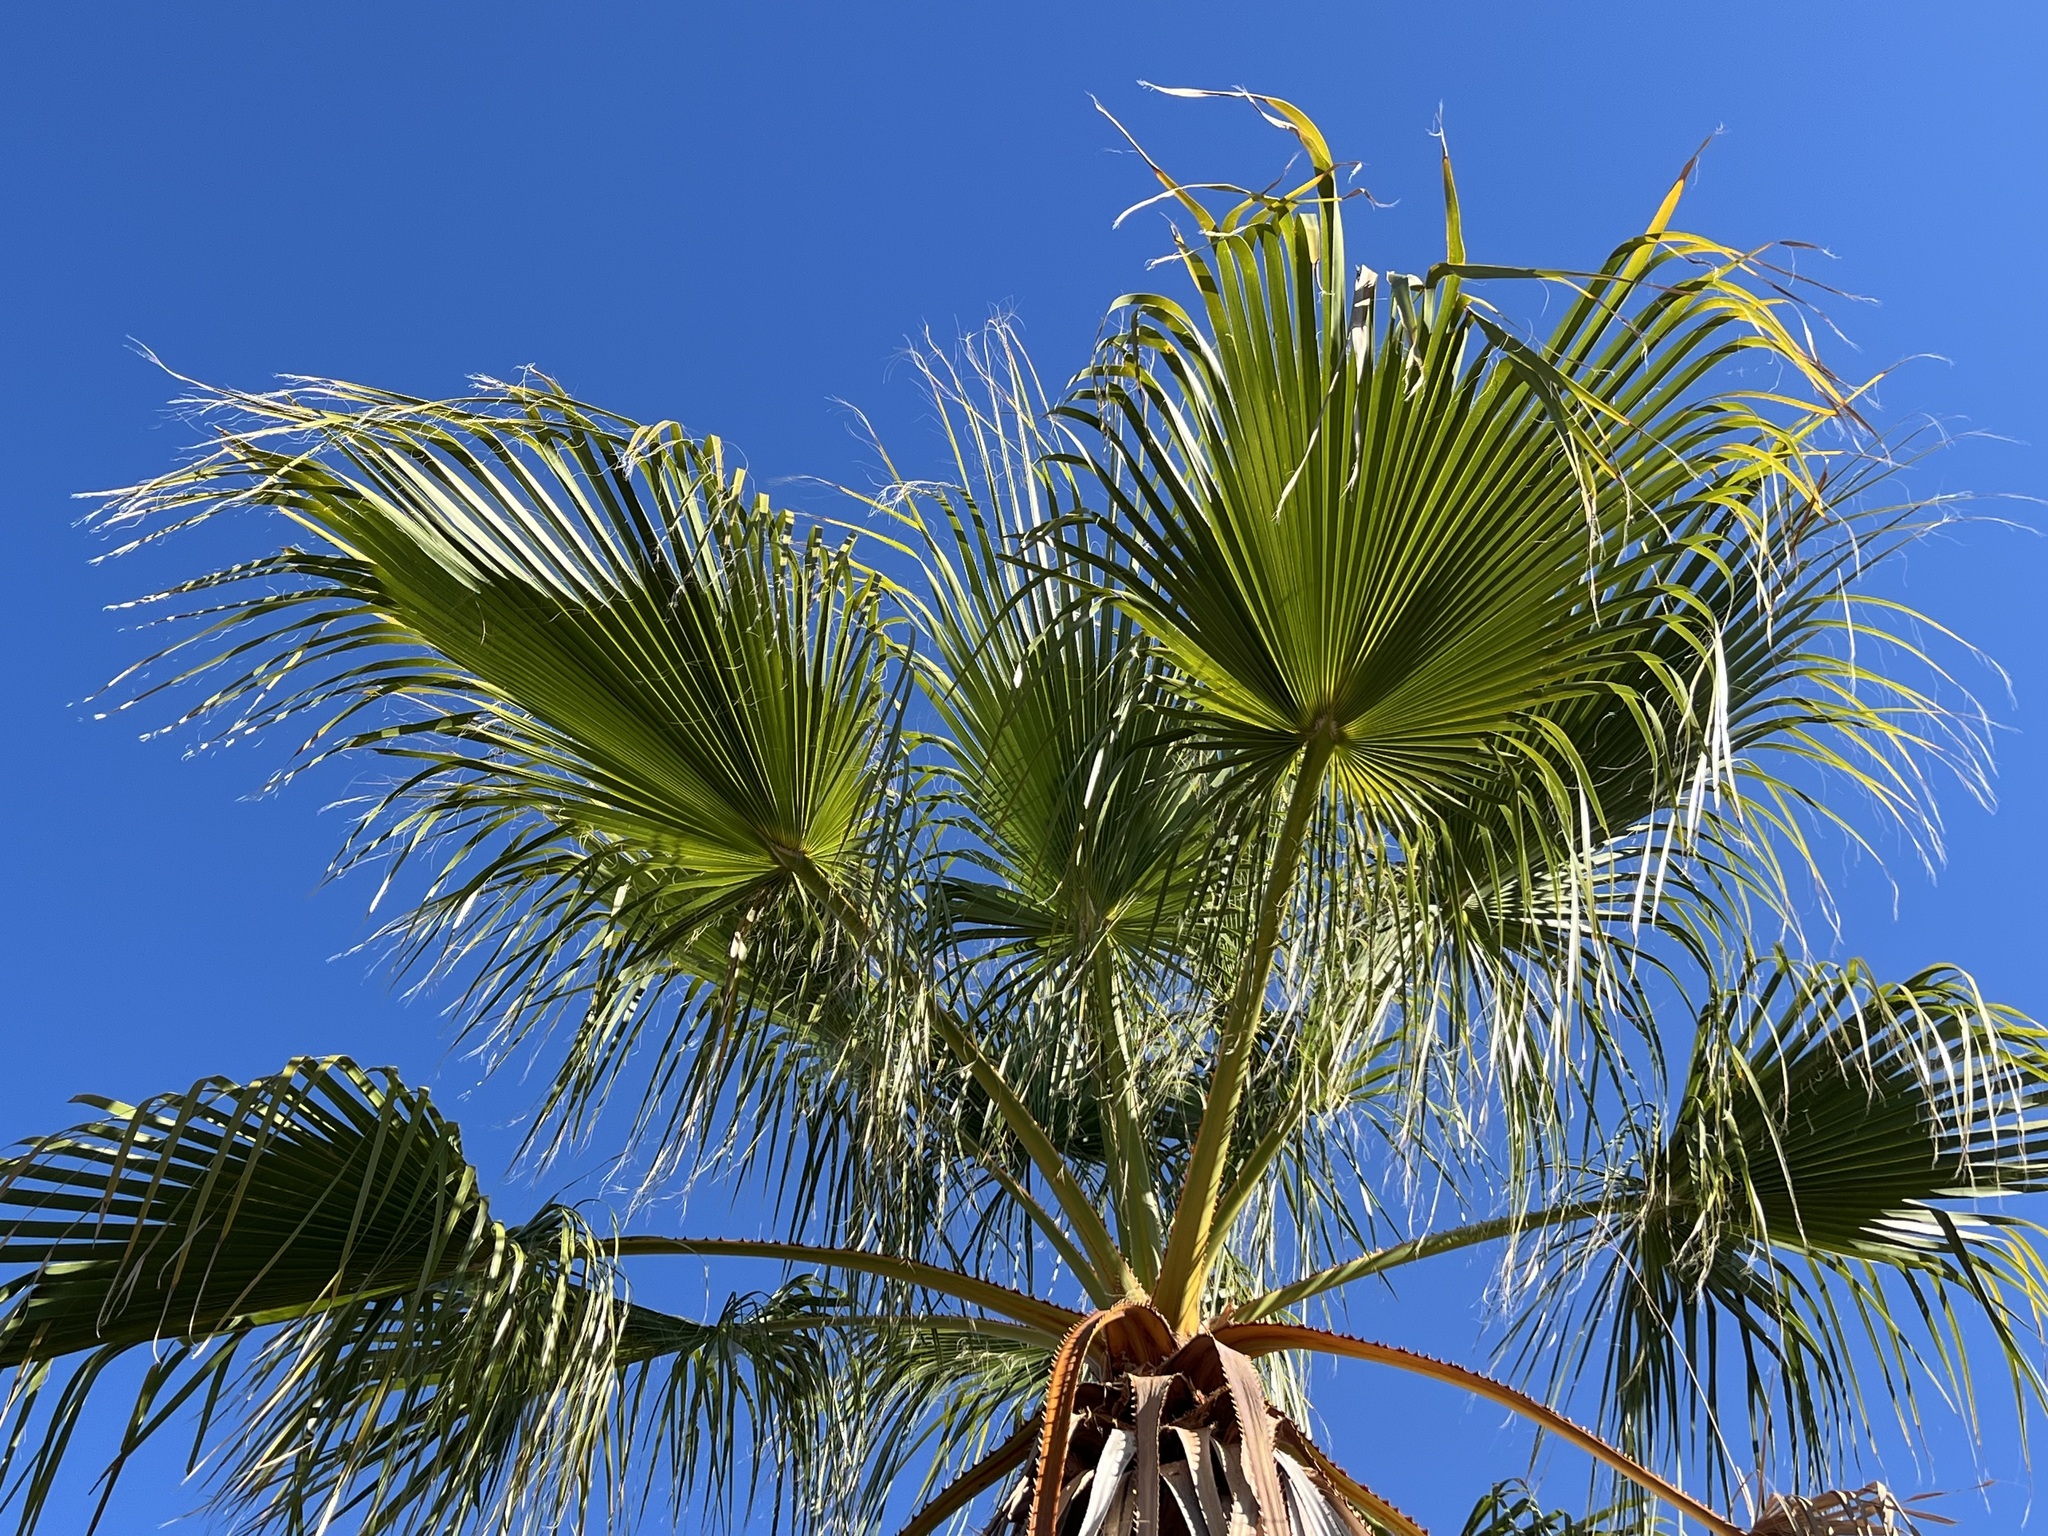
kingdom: Plantae
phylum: Tracheophyta
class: Liliopsida
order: Arecales
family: Arecaceae
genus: Washingtonia
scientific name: Washingtonia robusta
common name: Mexican fan palm
